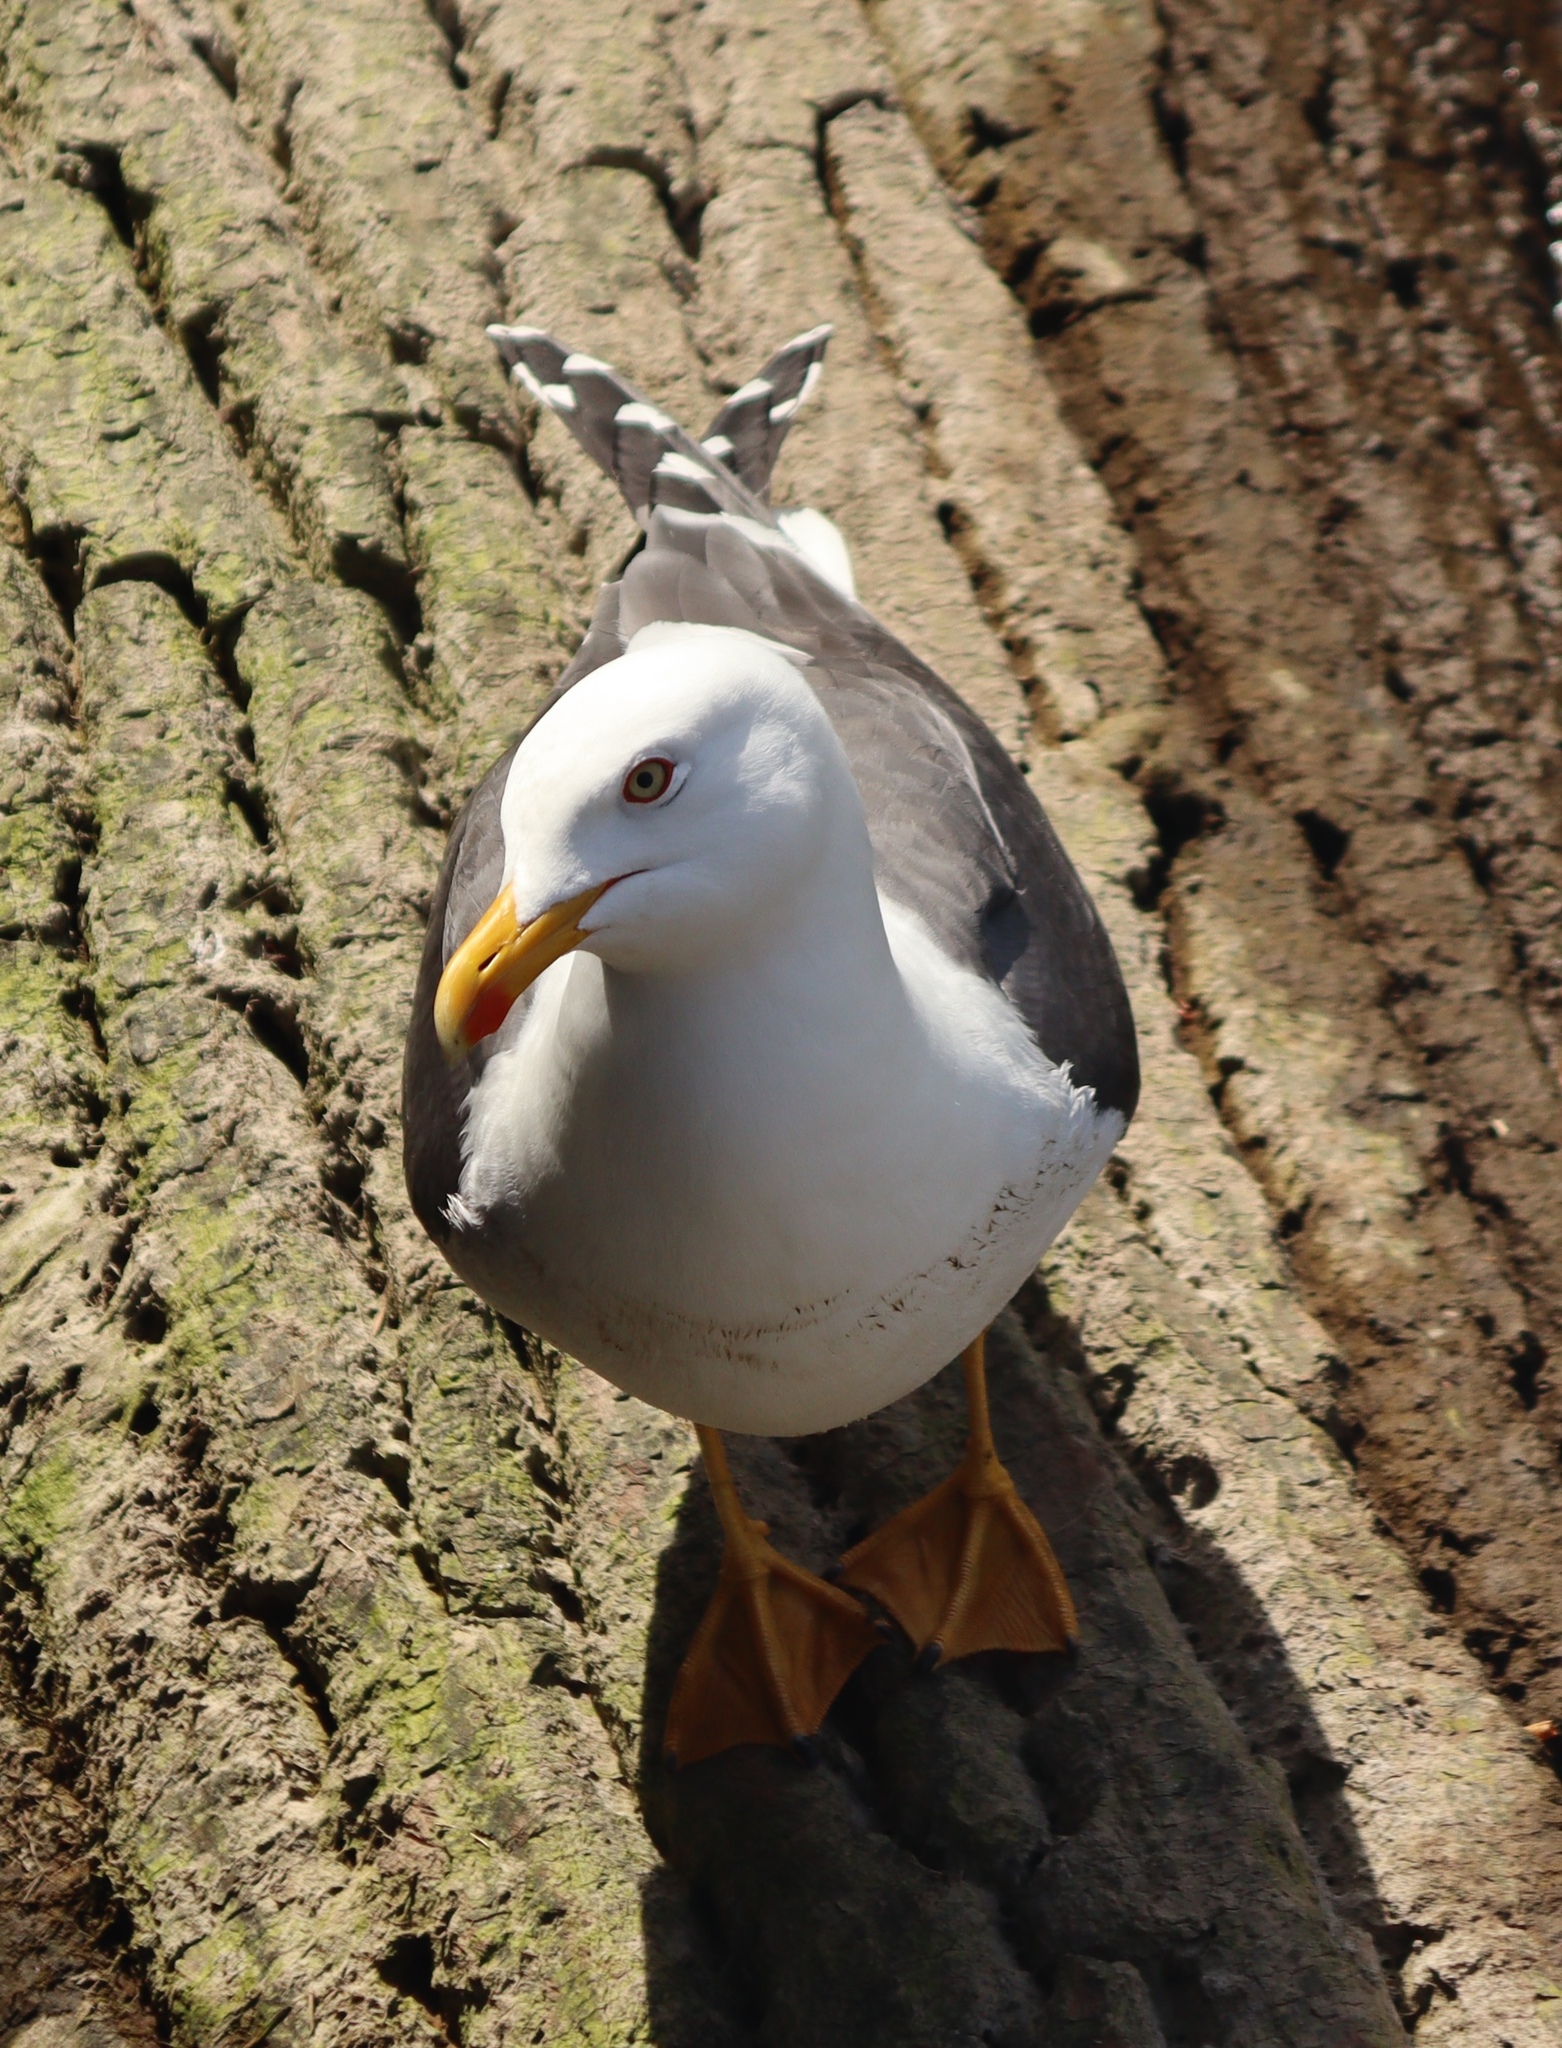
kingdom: Animalia
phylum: Chordata
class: Aves
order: Charadriiformes
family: Laridae
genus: Larus
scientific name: Larus fuscus
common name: Lesser black-backed gull
